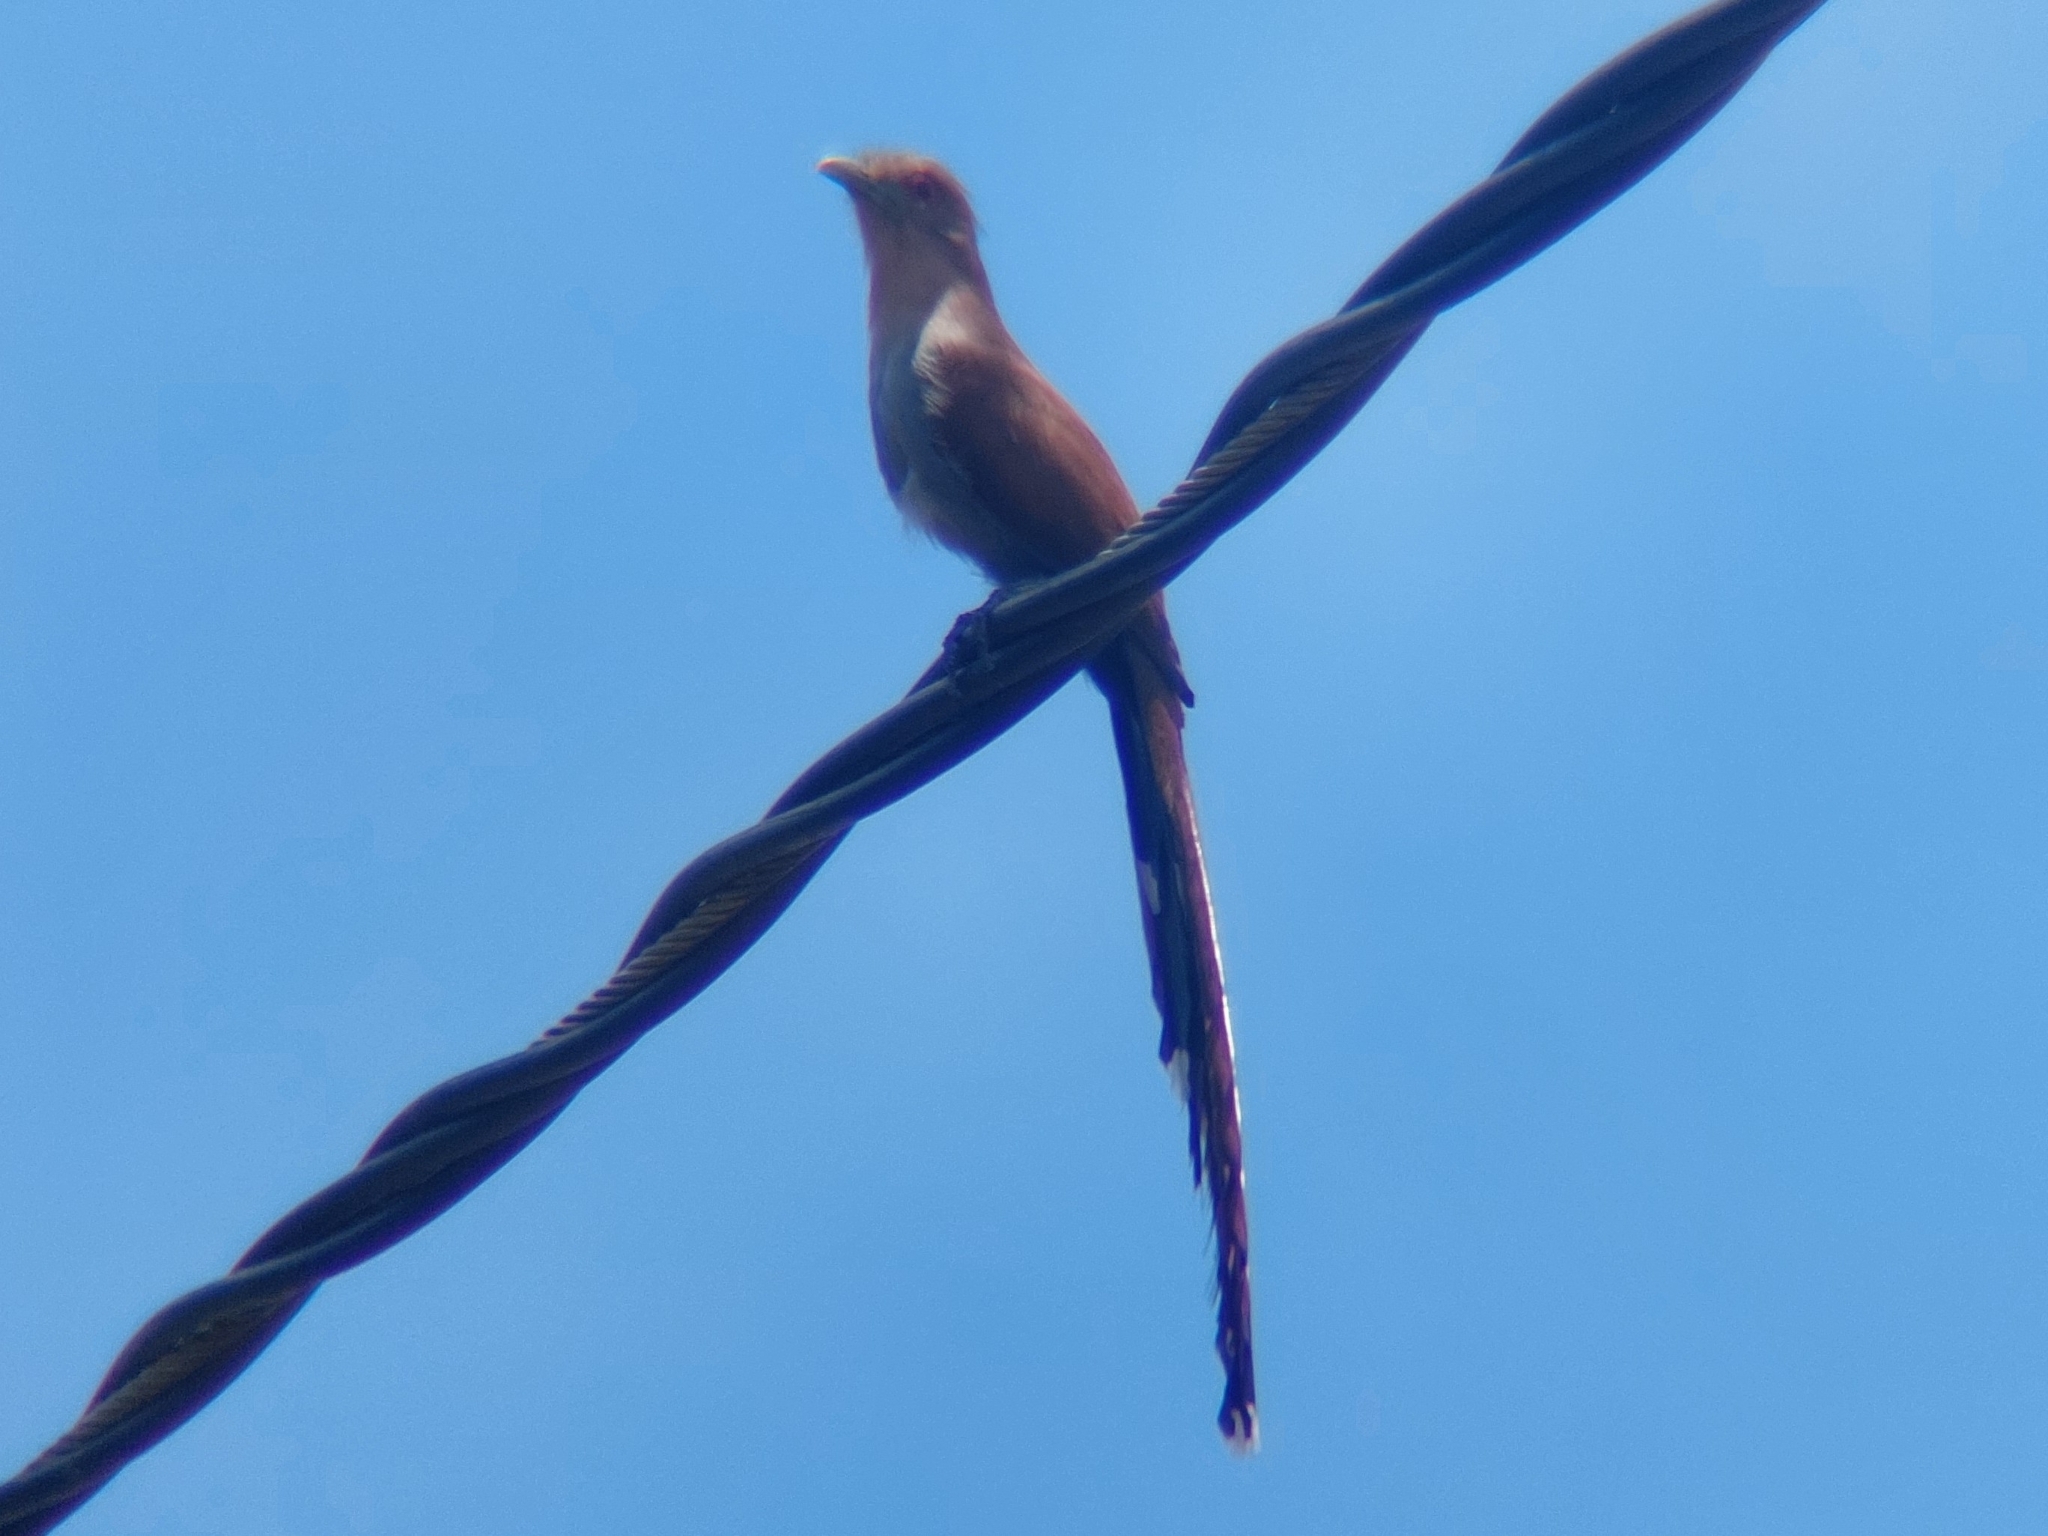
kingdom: Animalia
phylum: Chordata
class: Aves
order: Cuculiformes
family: Cuculidae
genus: Piaya
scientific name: Piaya cayana
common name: Squirrel cuckoo
